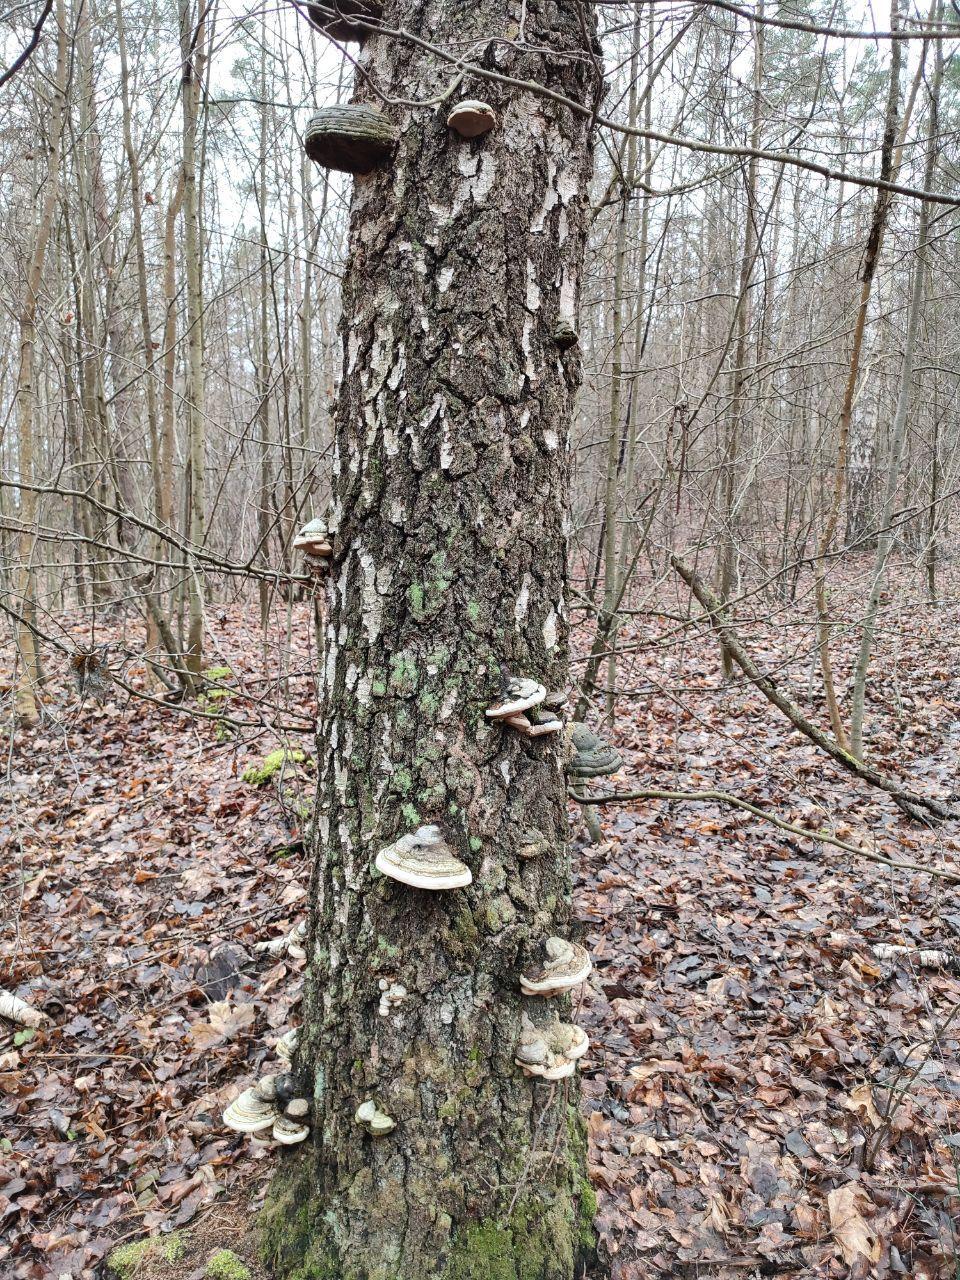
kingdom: Fungi
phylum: Basidiomycota
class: Agaricomycetes
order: Polyporales
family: Polyporaceae
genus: Fomes
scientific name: Fomes fomentarius
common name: Hoof fungus
